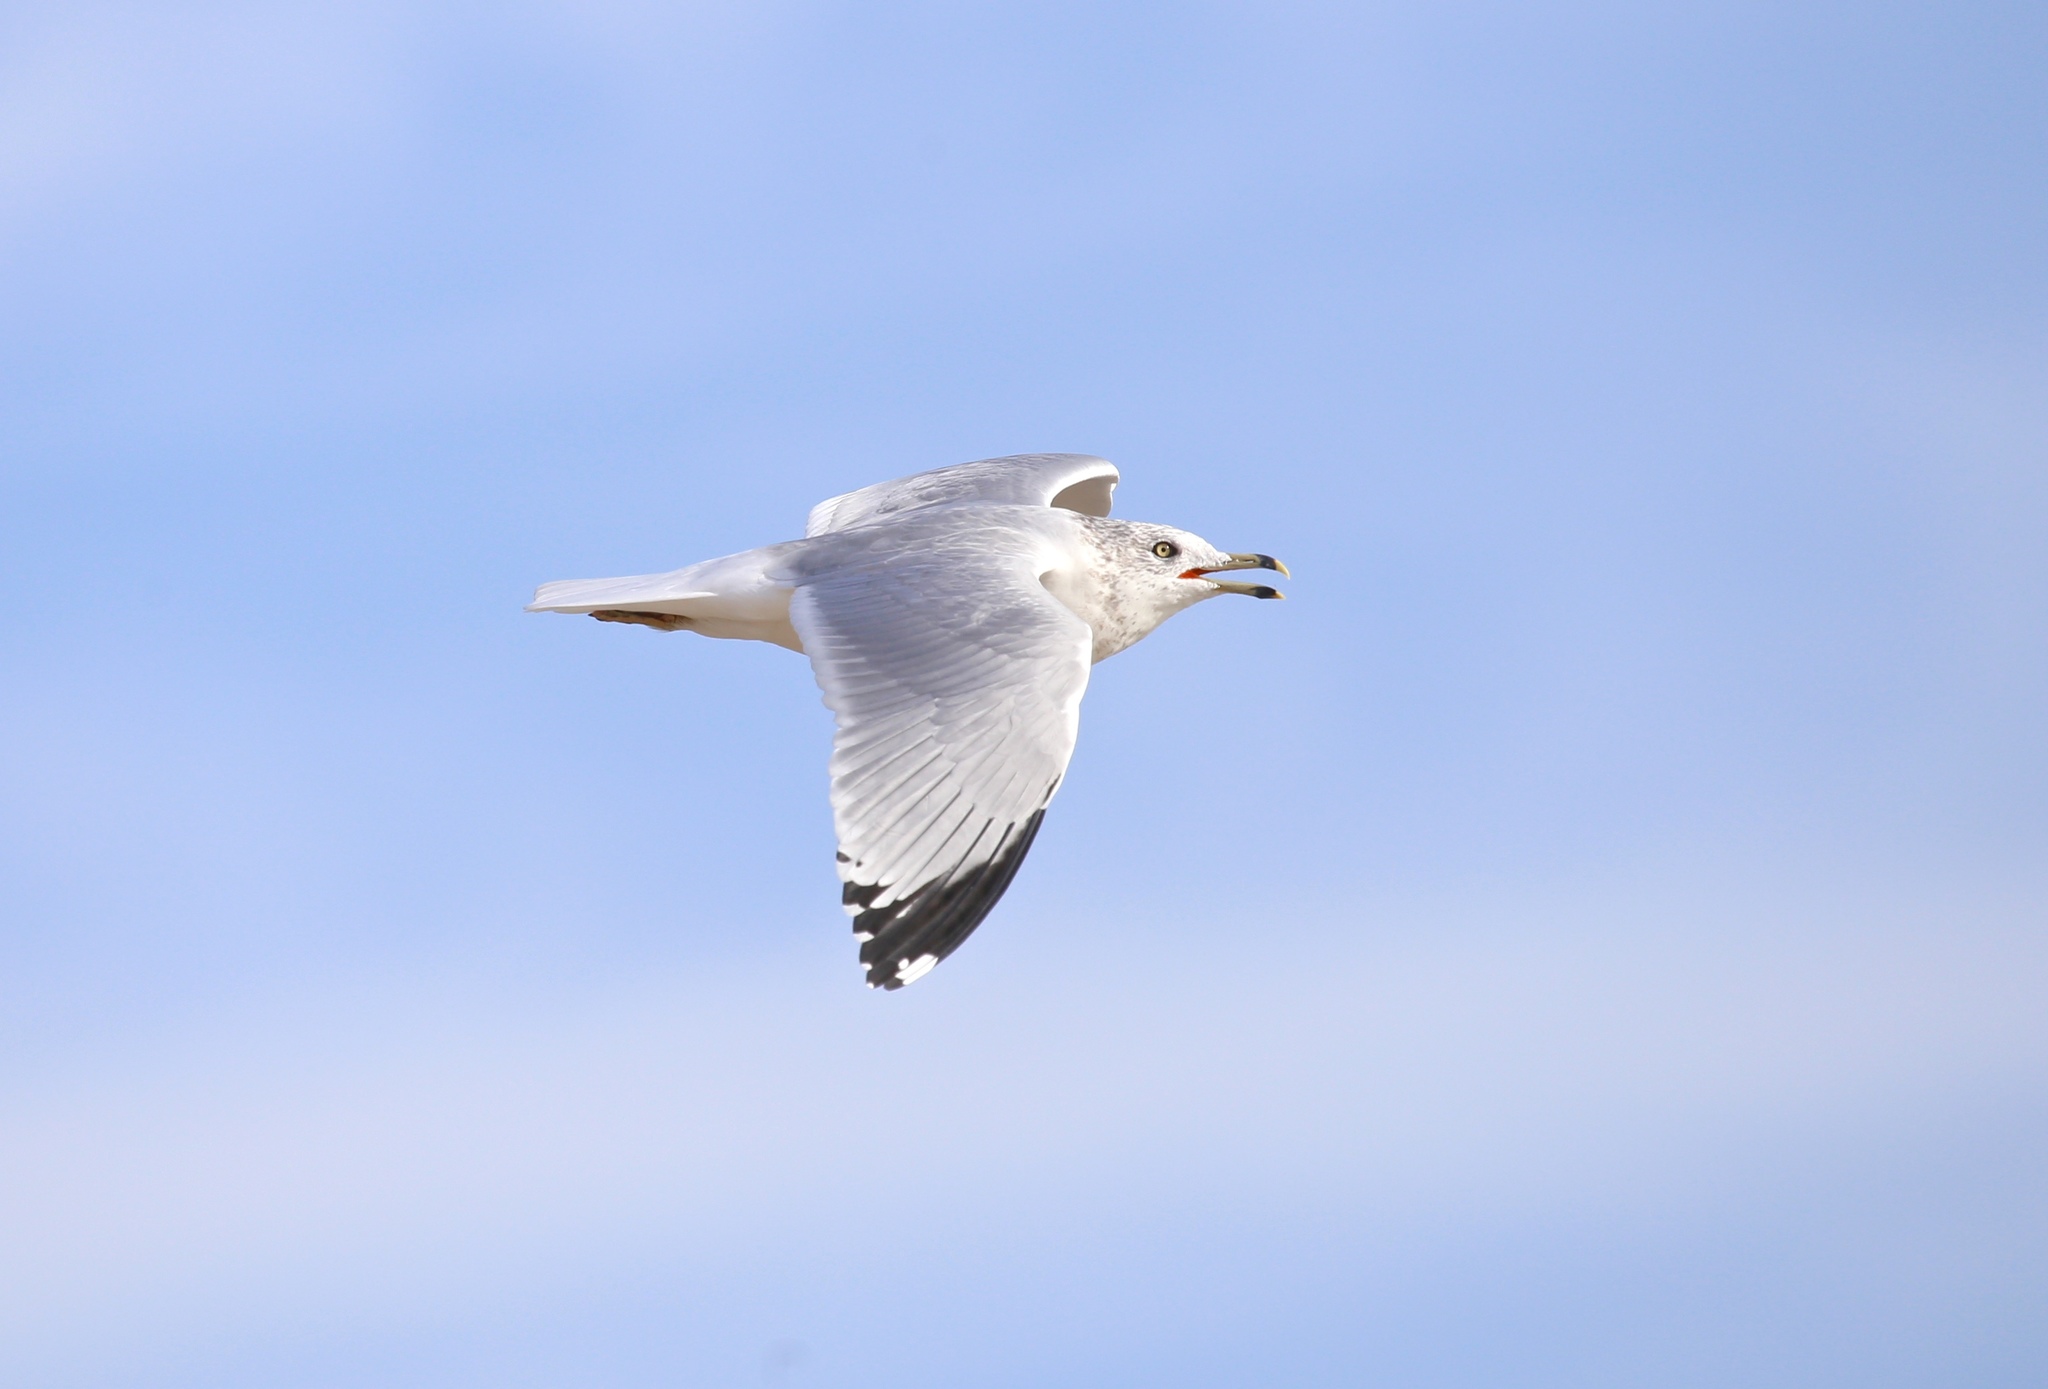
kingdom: Animalia
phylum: Chordata
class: Aves
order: Charadriiformes
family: Laridae
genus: Larus
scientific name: Larus delawarensis
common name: Ring-billed gull
